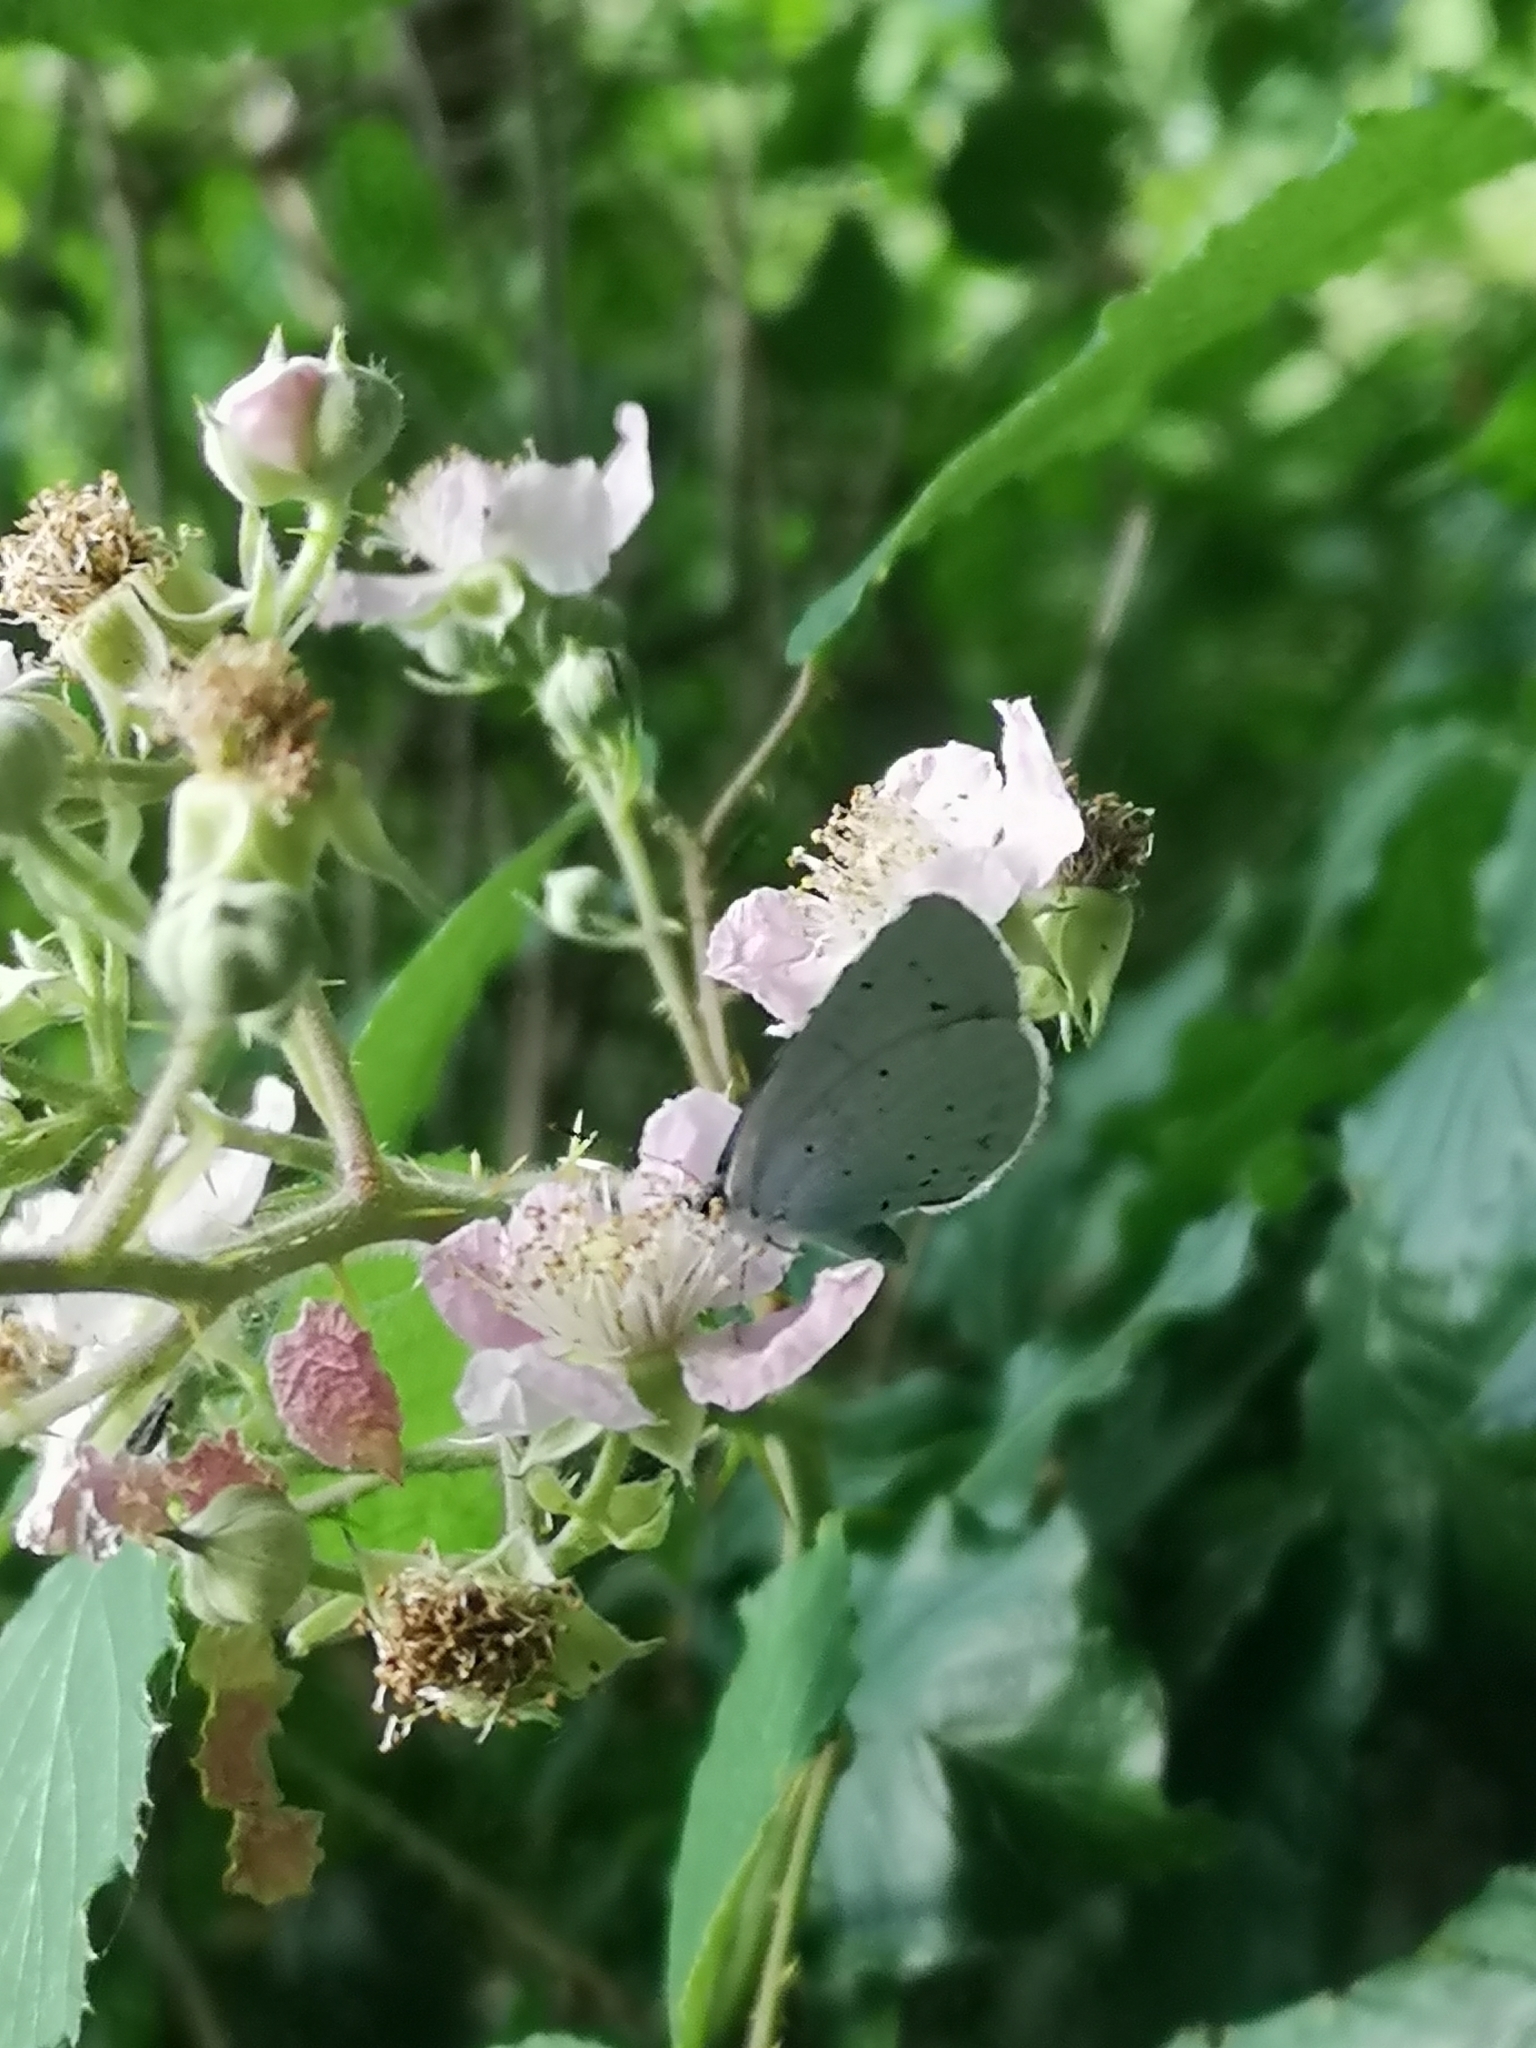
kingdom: Animalia
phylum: Arthropoda
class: Insecta
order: Lepidoptera
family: Lycaenidae
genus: Celastrina
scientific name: Celastrina argiolus
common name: Holly blue
